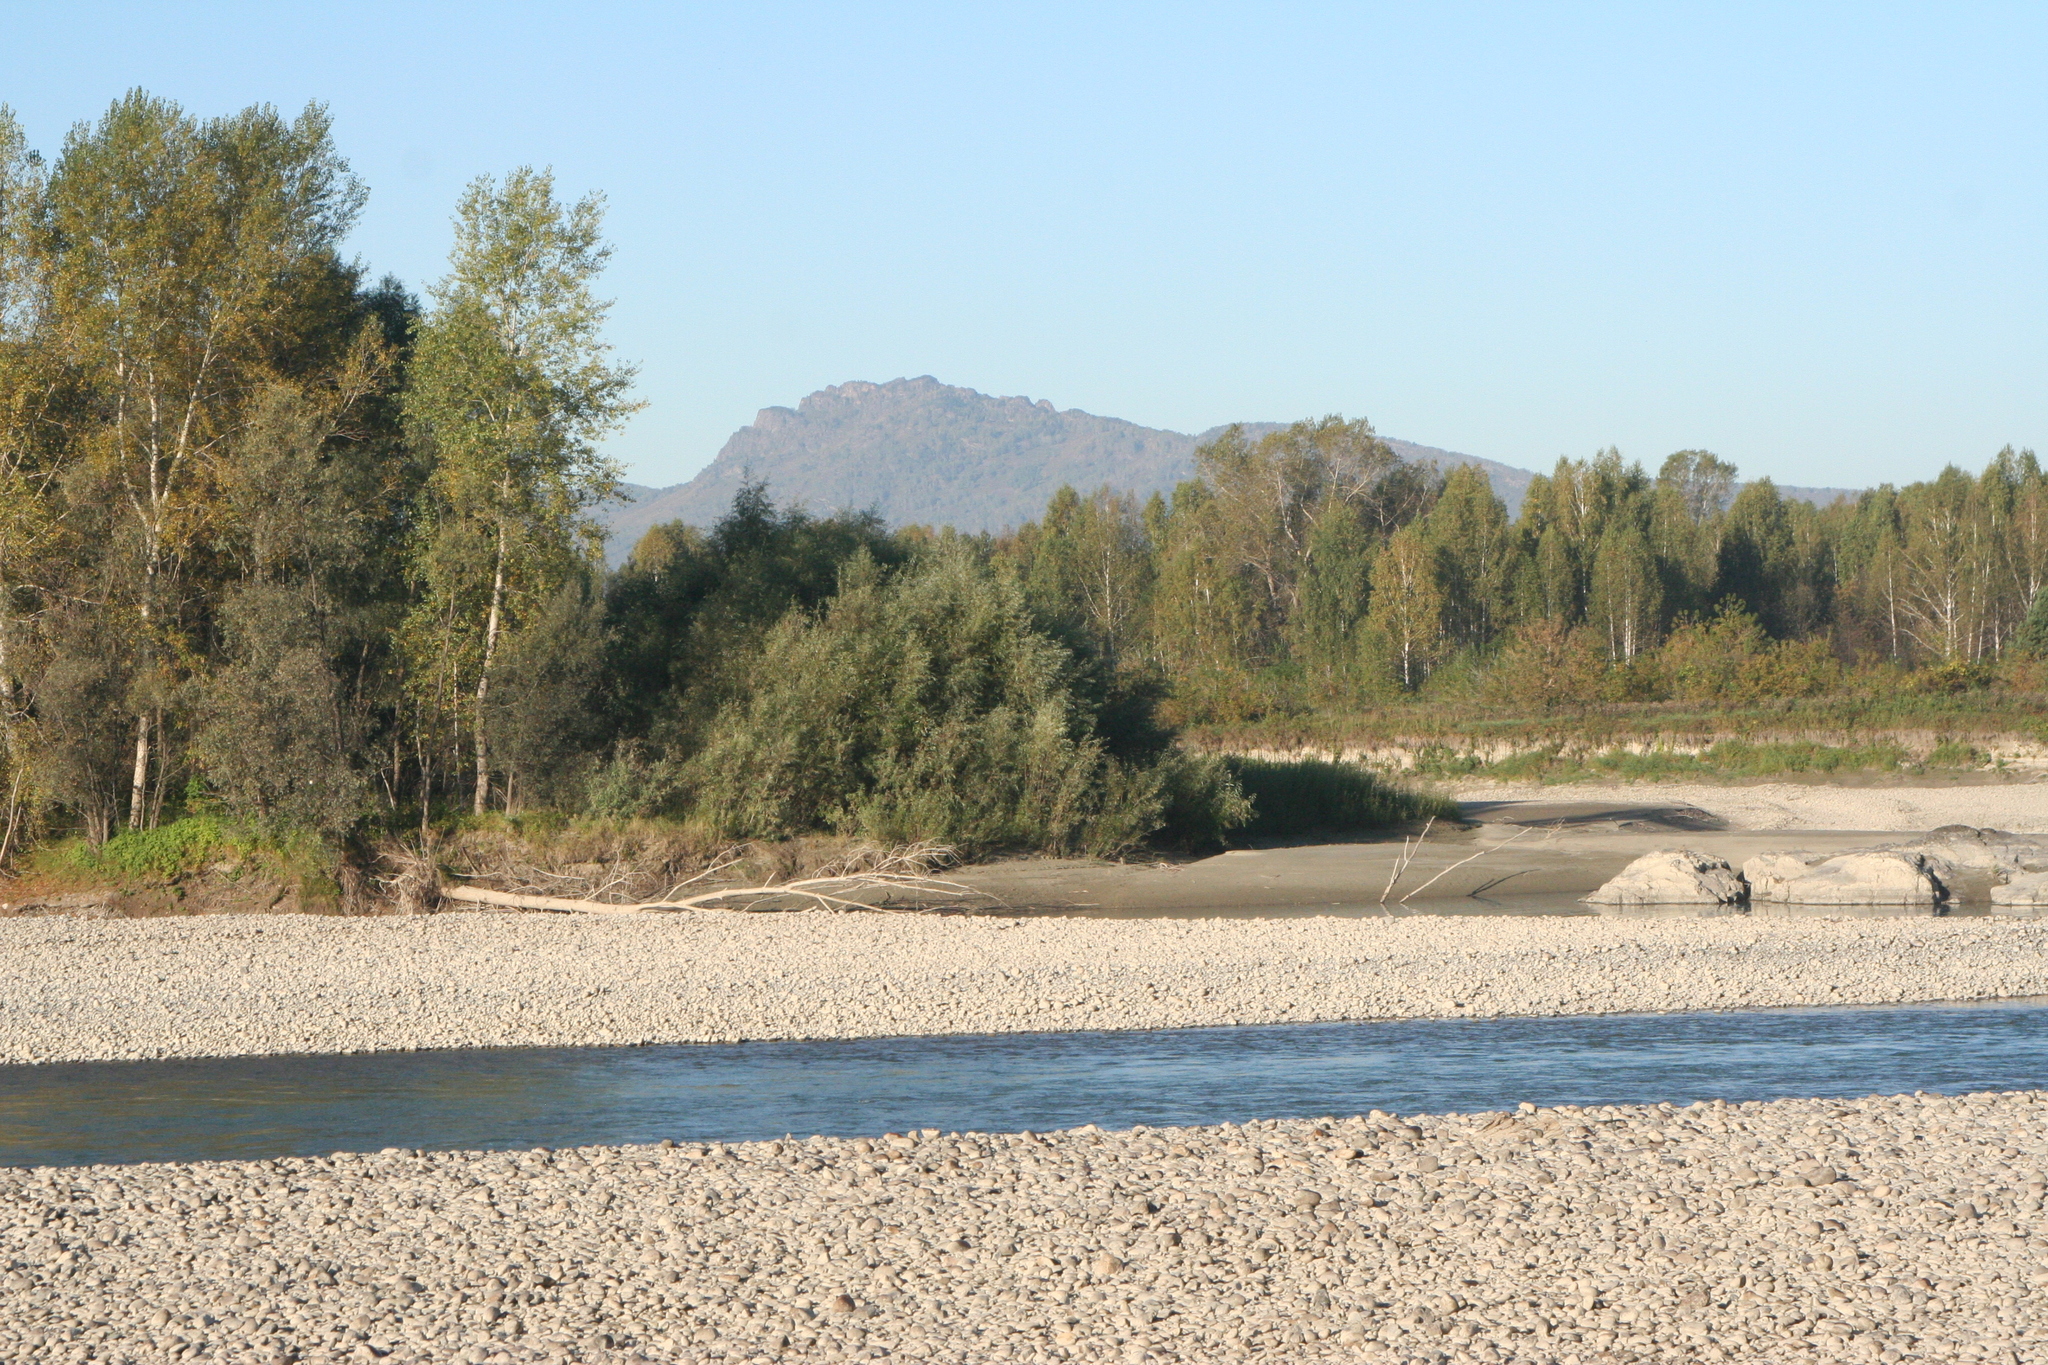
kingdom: Plantae
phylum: Tracheophyta
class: Magnoliopsida
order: Malpighiales
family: Salicaceae
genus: Populus
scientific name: Populus laurifolia
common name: Laurel-leaf poplar
